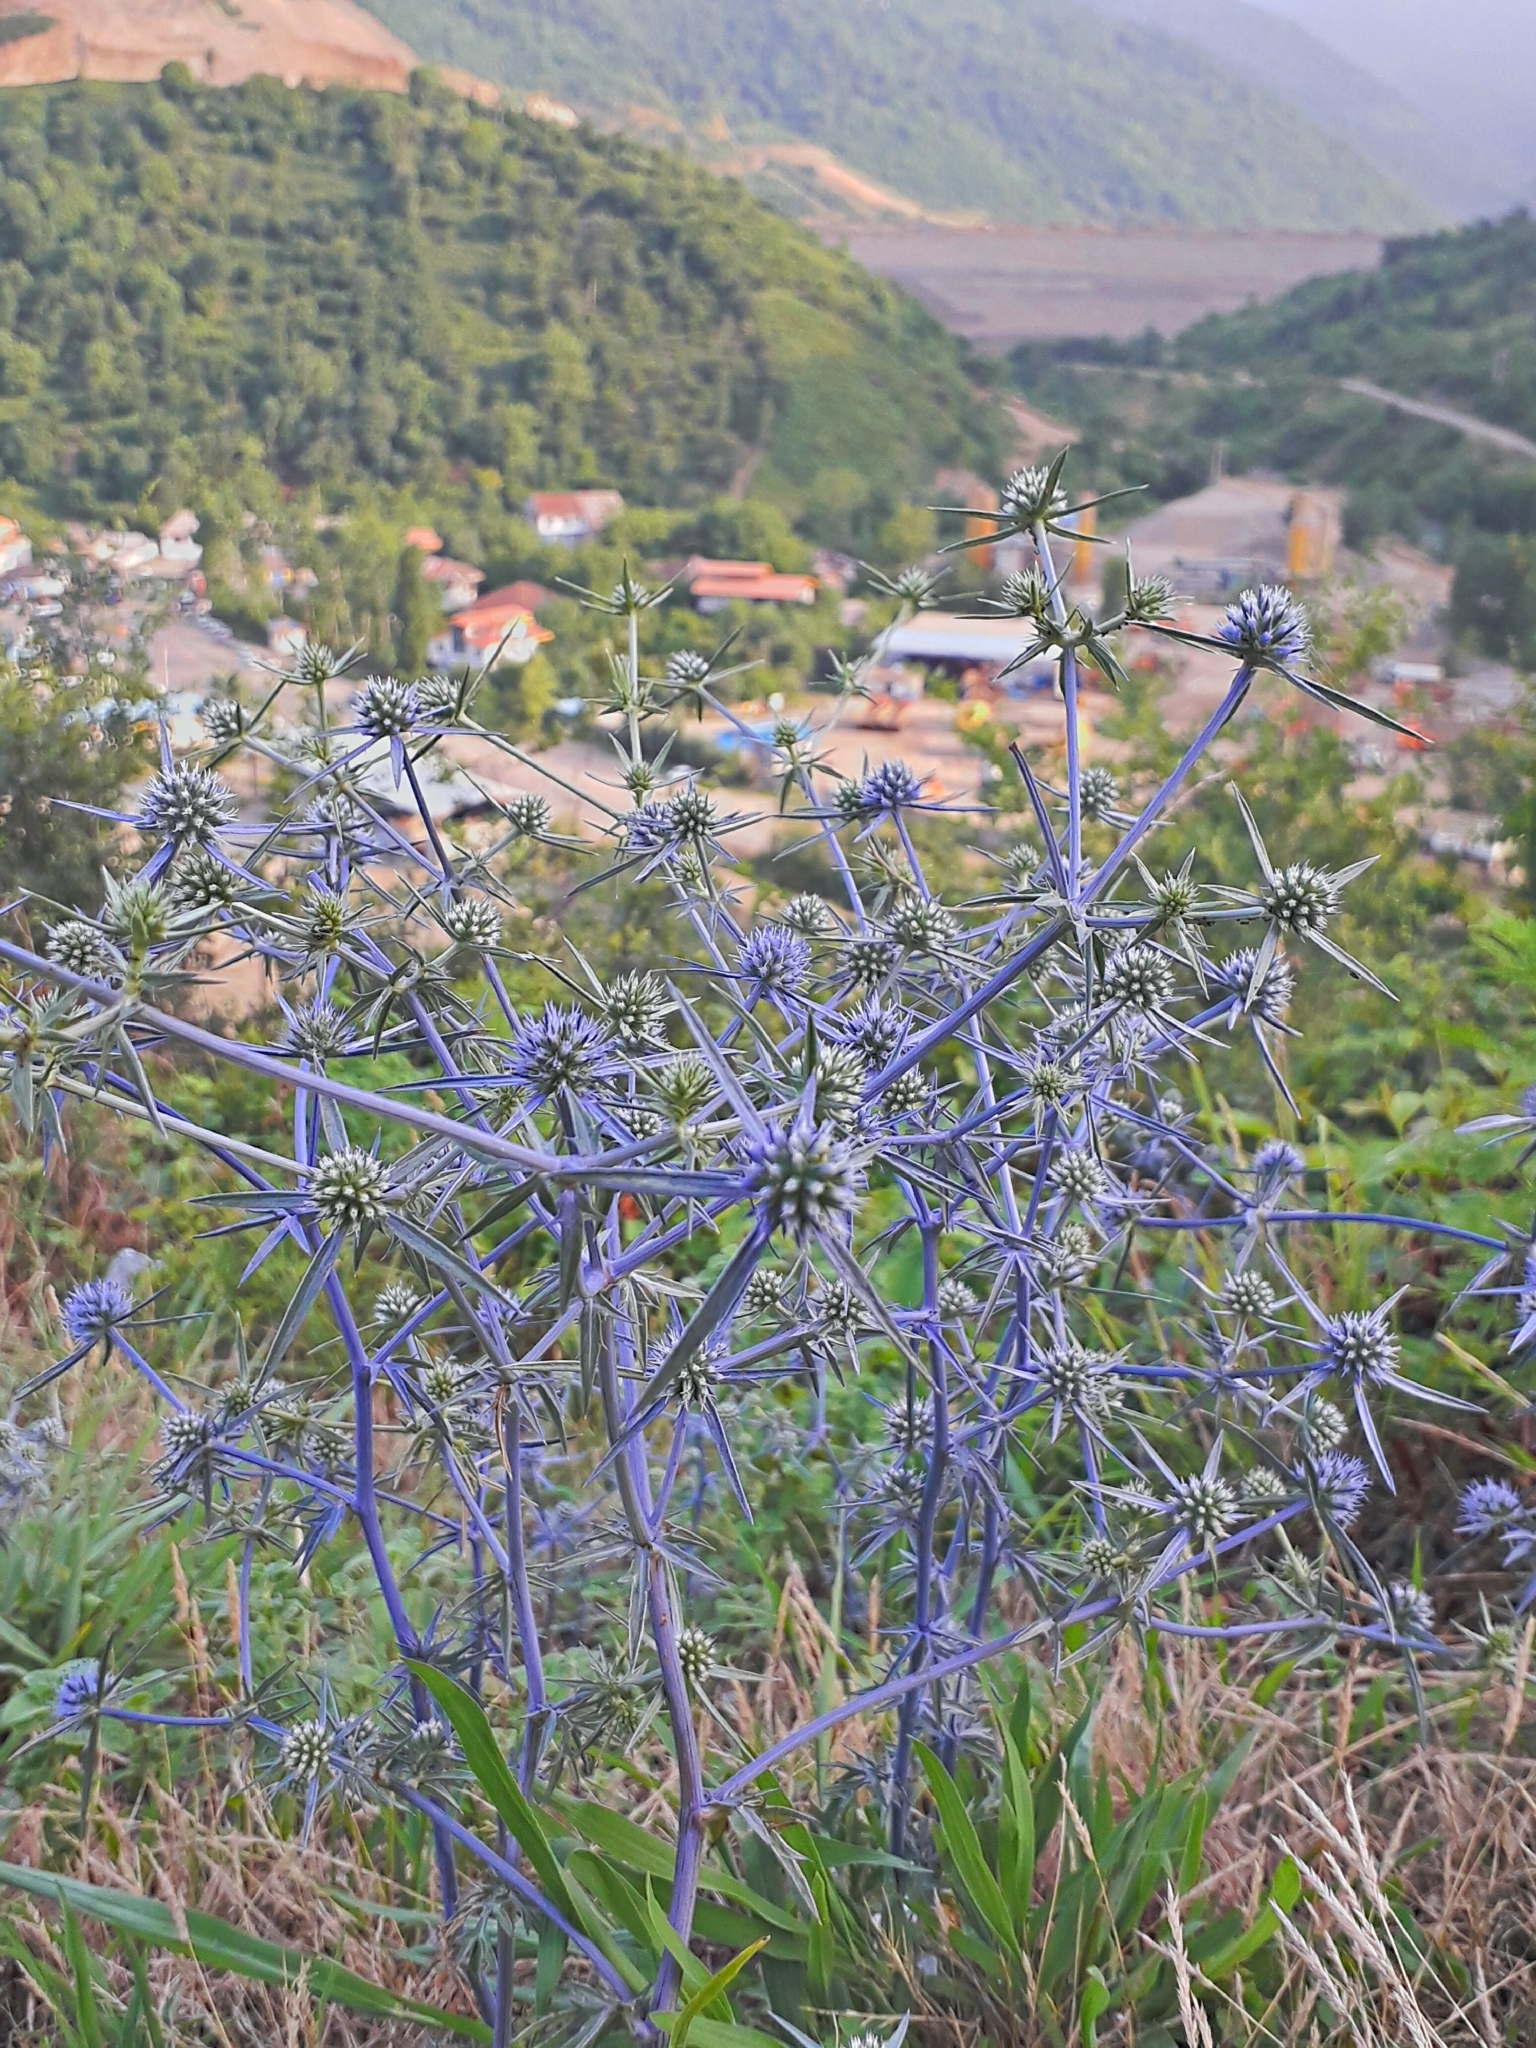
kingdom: Plantae
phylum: Tracheophyta
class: Magnoliopsida
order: Apiales
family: Apiaceae
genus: Eryngium
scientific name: Eryngium creticum
